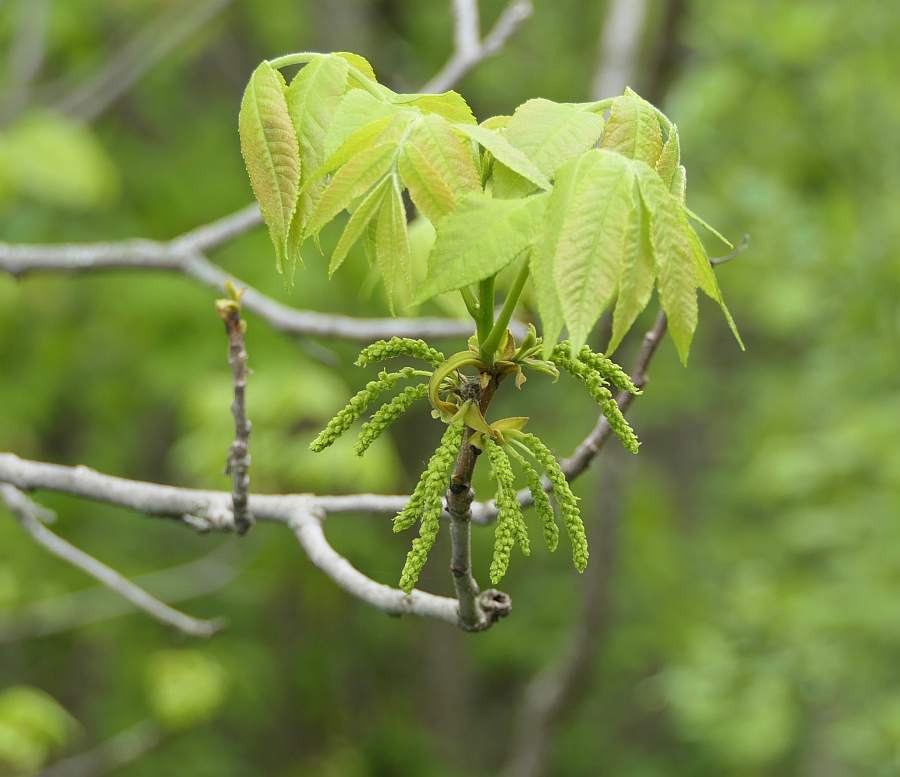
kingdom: Plantae
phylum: Tracheophyta
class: Magnoliopsida
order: Fagales
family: Juglandaceae
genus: Carya
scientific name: Carya cordiformis
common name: Bitternut hickory
